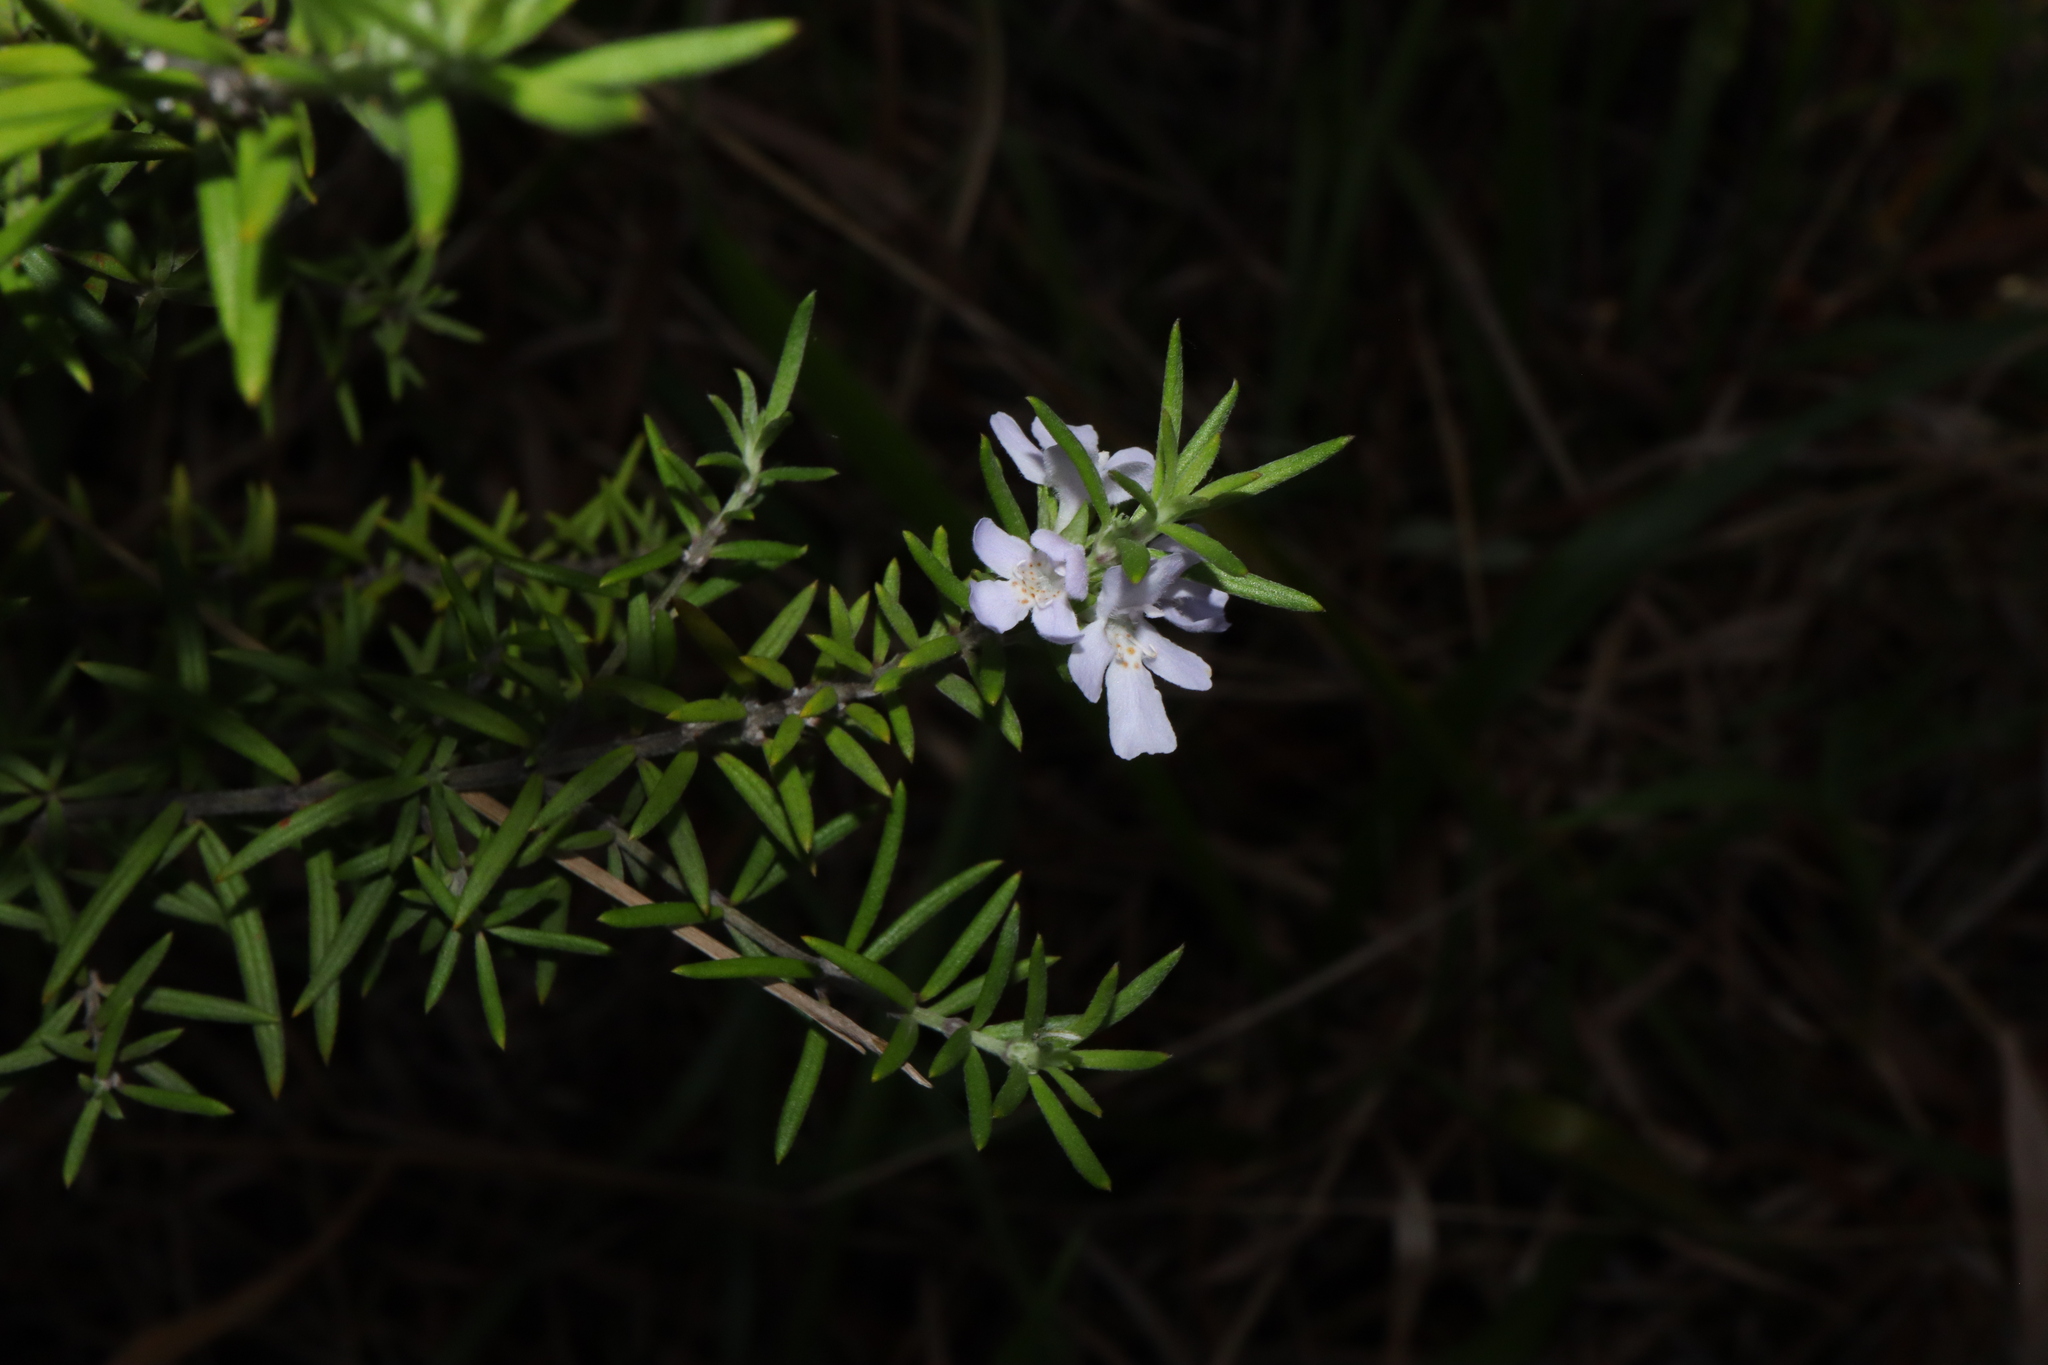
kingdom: Plantae
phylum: Tracheophyta
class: Magnoliopsida
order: Lamiales
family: Lamiaceae
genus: Westringia
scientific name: Westringia fruticosa
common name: Coastal-rosemary
